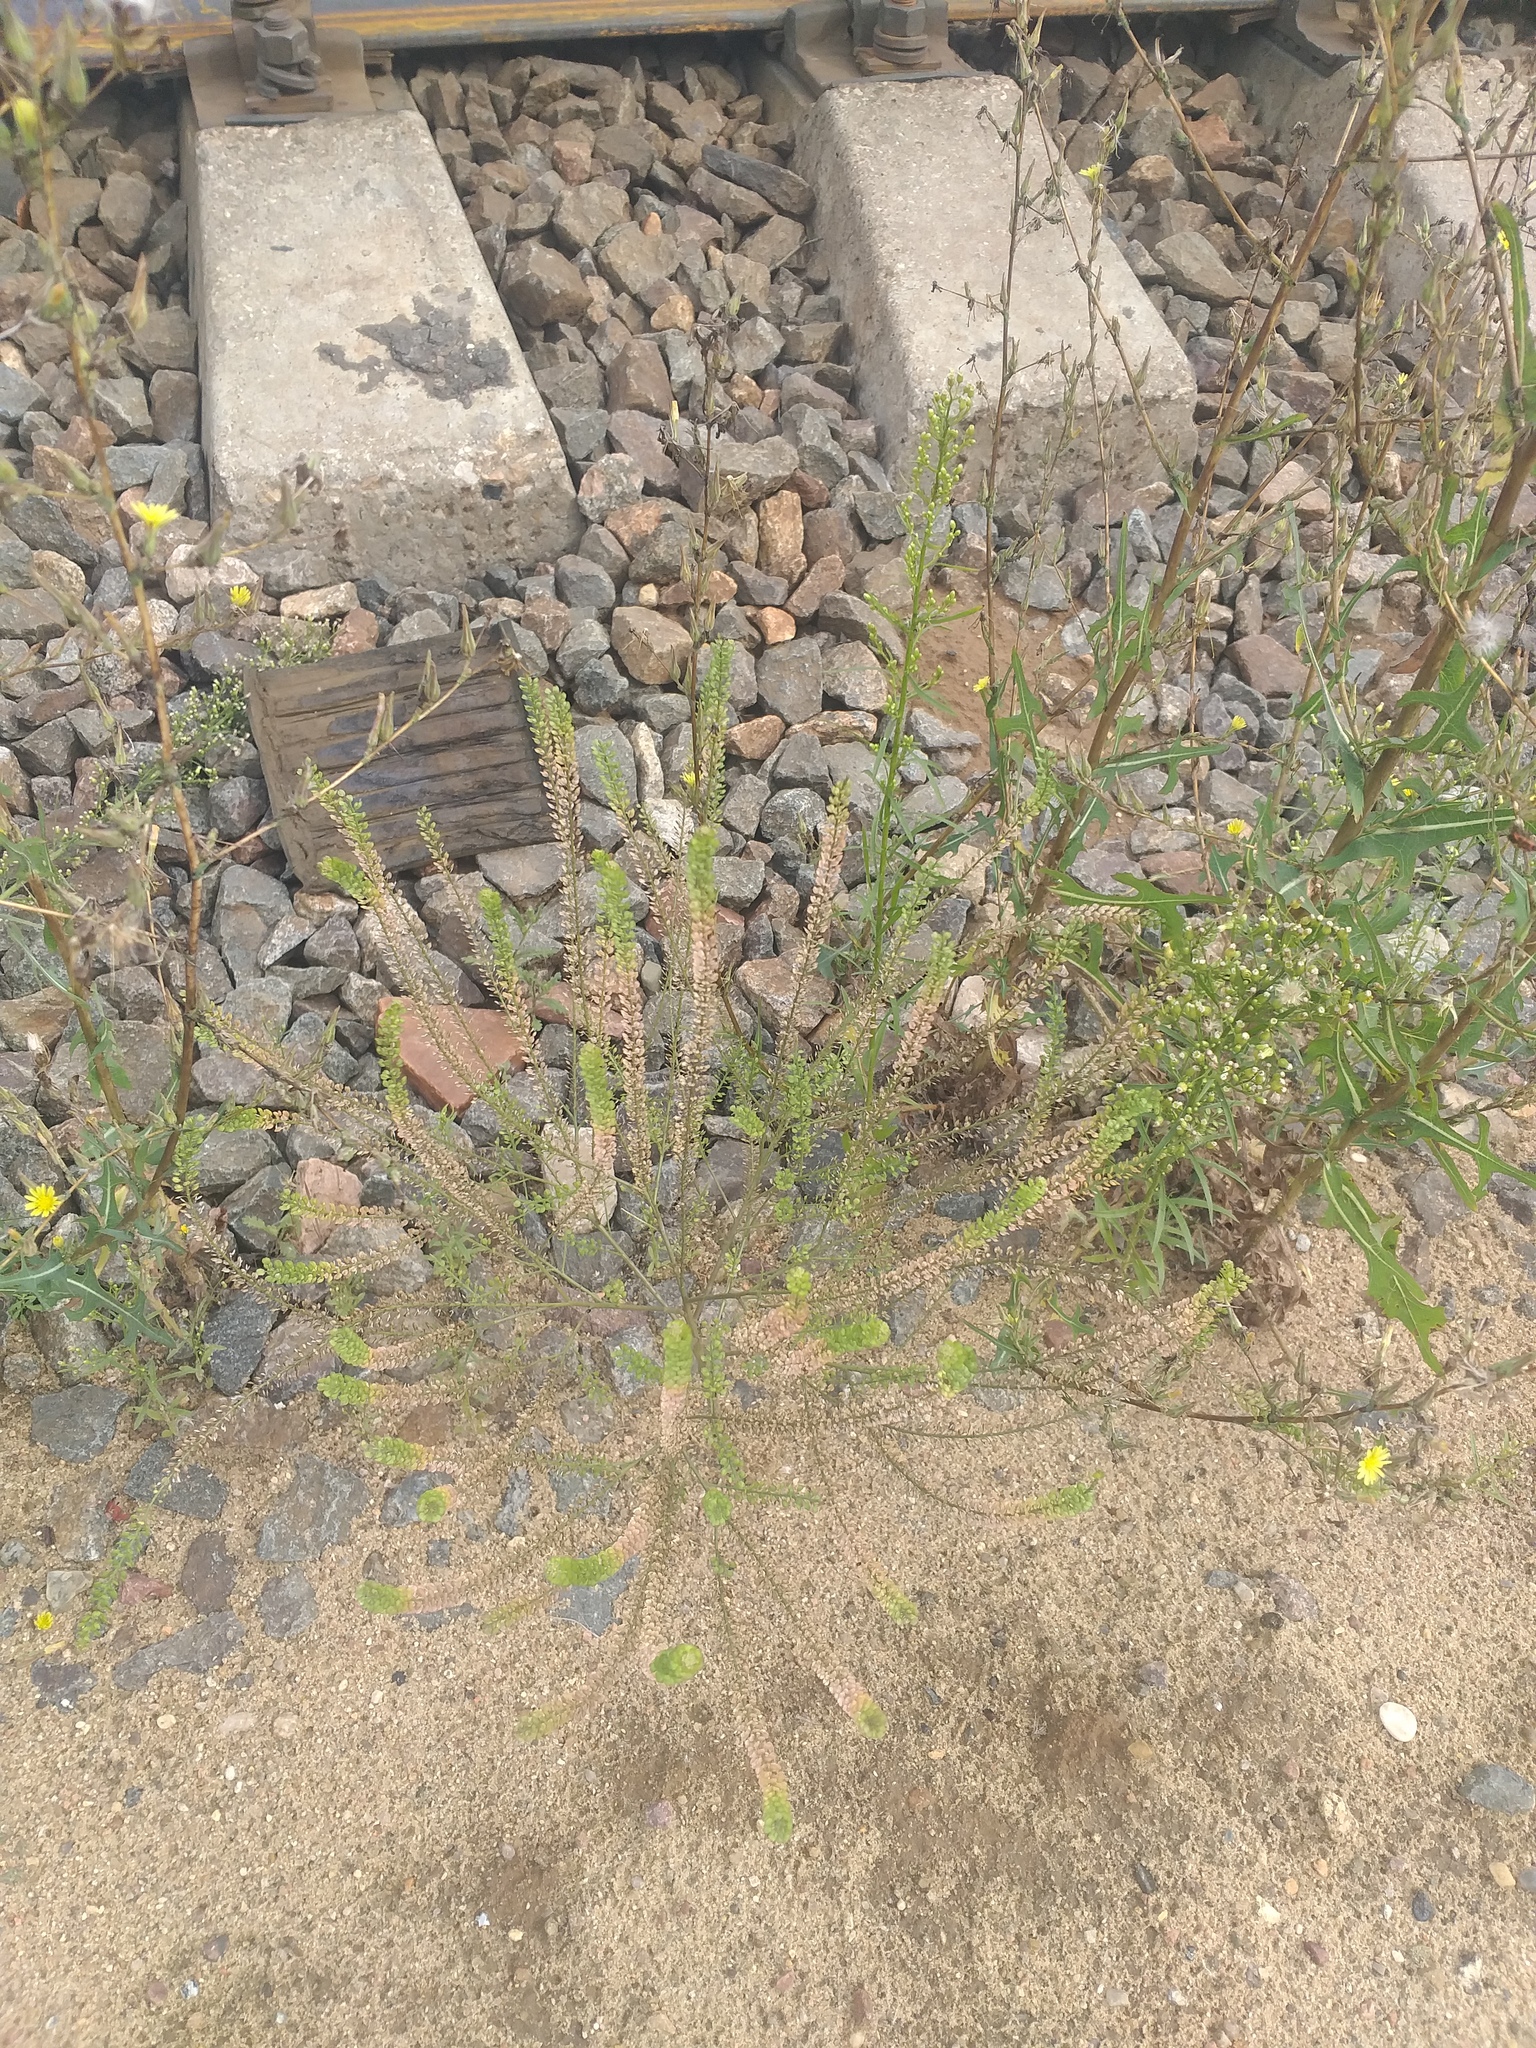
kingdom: Plantae
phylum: Tracheophyta
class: Magnoliopsida
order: Brassicales
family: Brassicaceae
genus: Lepidium
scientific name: Lepidium densiflorum
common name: Miner's pepperwort
